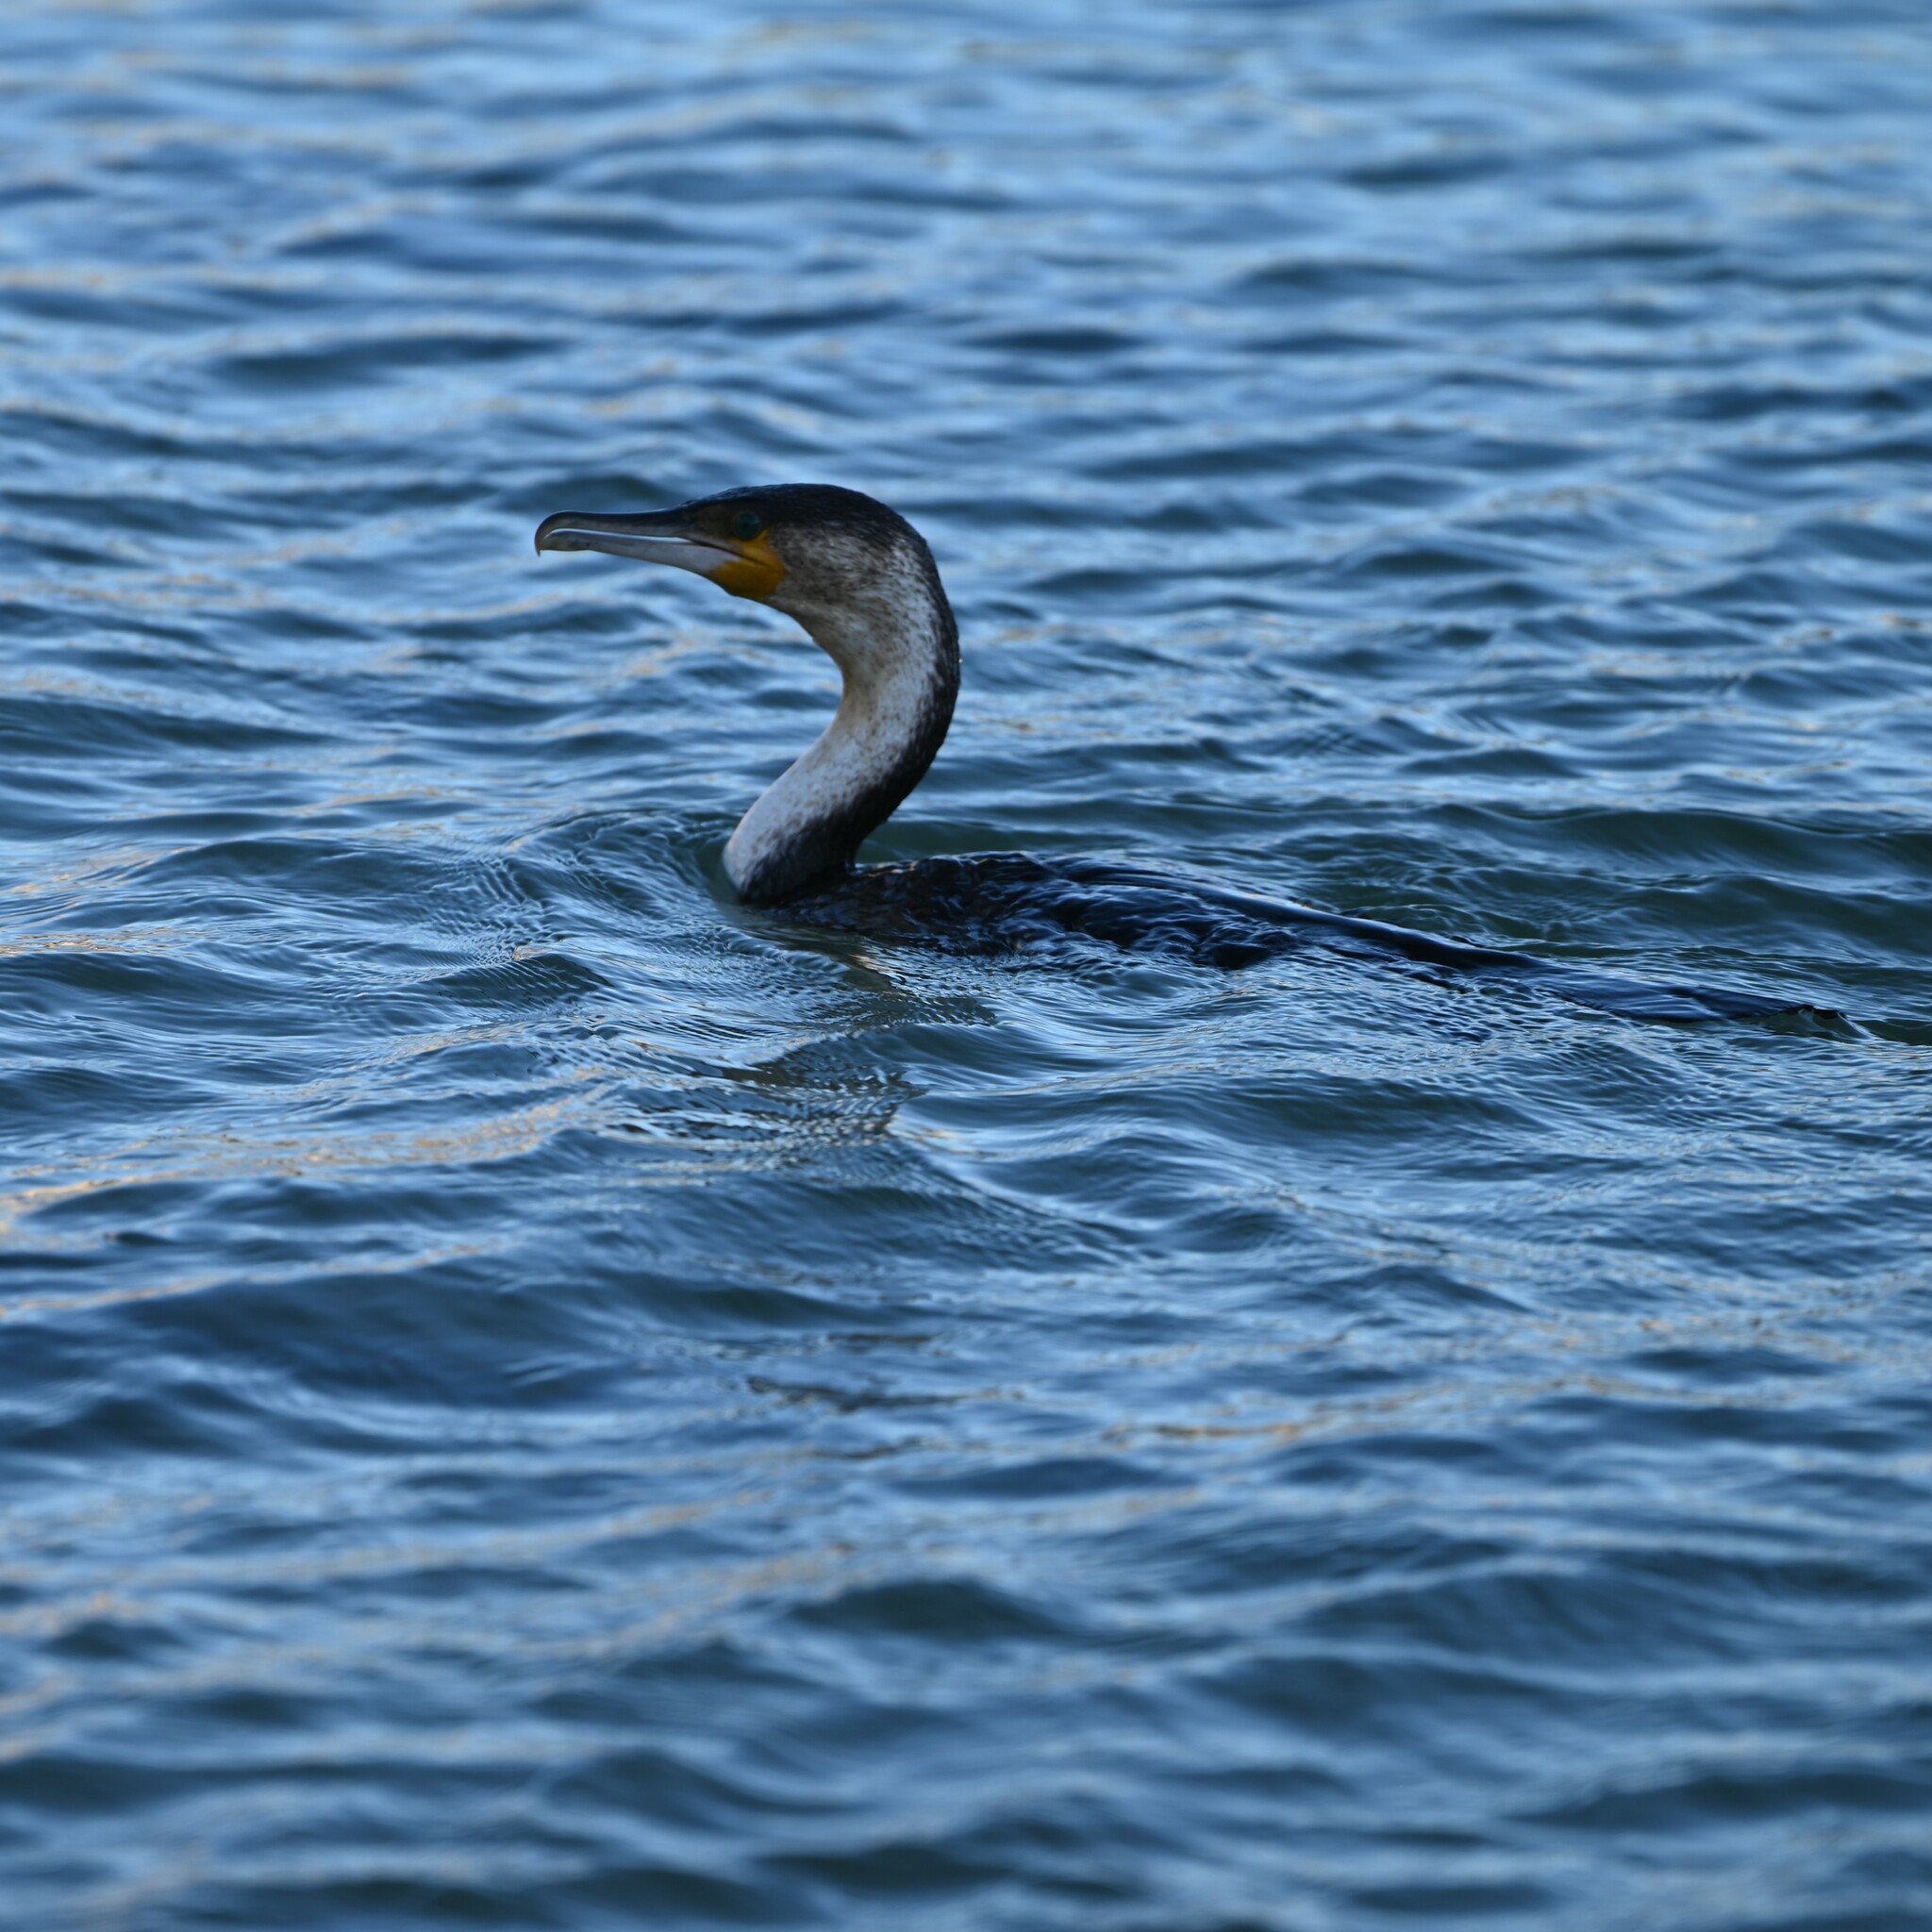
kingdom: Animalia
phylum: Chordata
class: Aves
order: Suliformes
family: Phalacrocoracidae
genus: Phalacrocorax
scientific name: Phalacrocorax carbo
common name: Great cormorant
